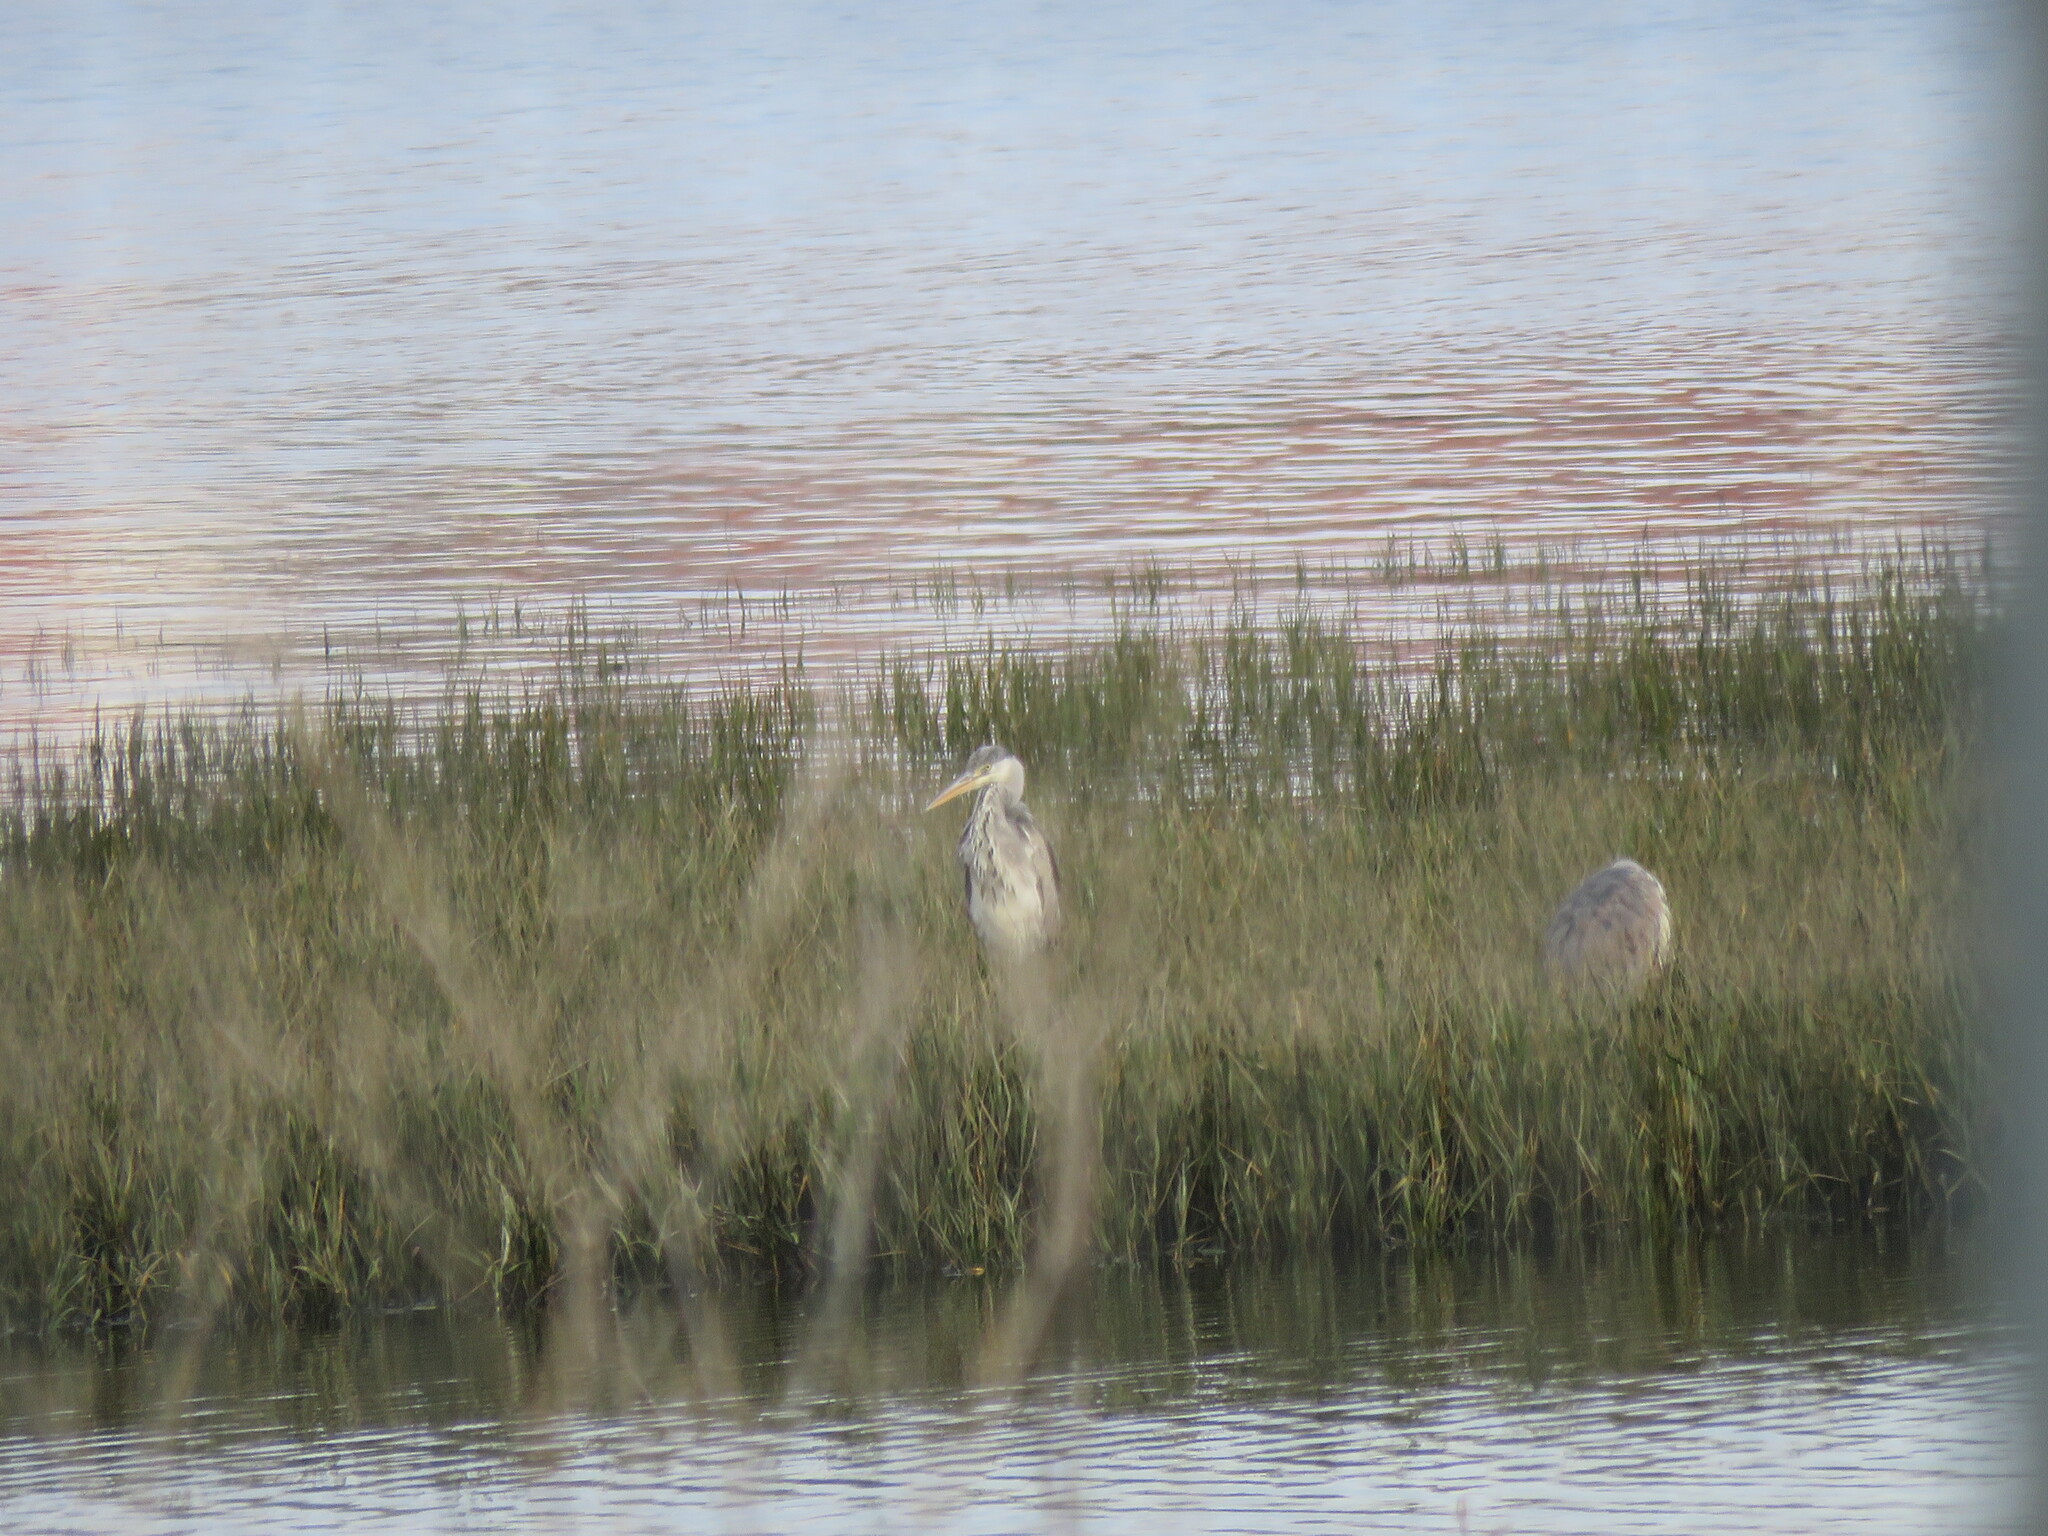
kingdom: Animalia
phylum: Chordata
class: Aves
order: Pelecaniformes
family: Ardeidae
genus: Ardea
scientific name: Ardea cinerea
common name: Grey heron
